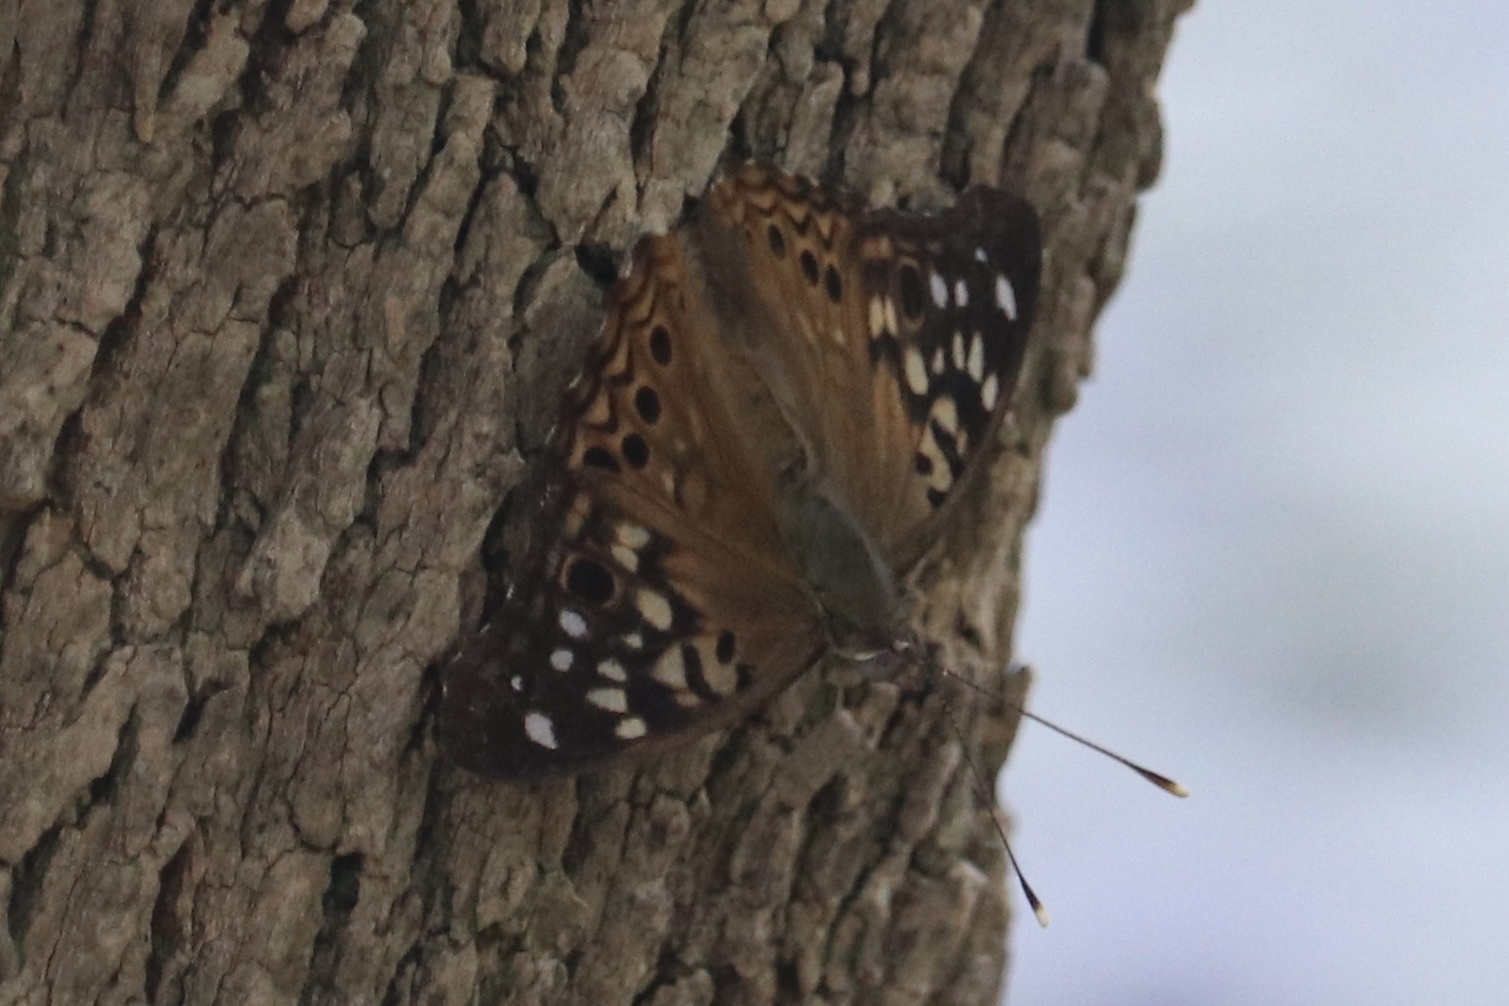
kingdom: Animalia
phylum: Arthropoda
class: Insecta
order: Lepidoptera
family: Nymphalidae
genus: Asterocampa
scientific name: Asterocampa celtis
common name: Hackberry emperor
